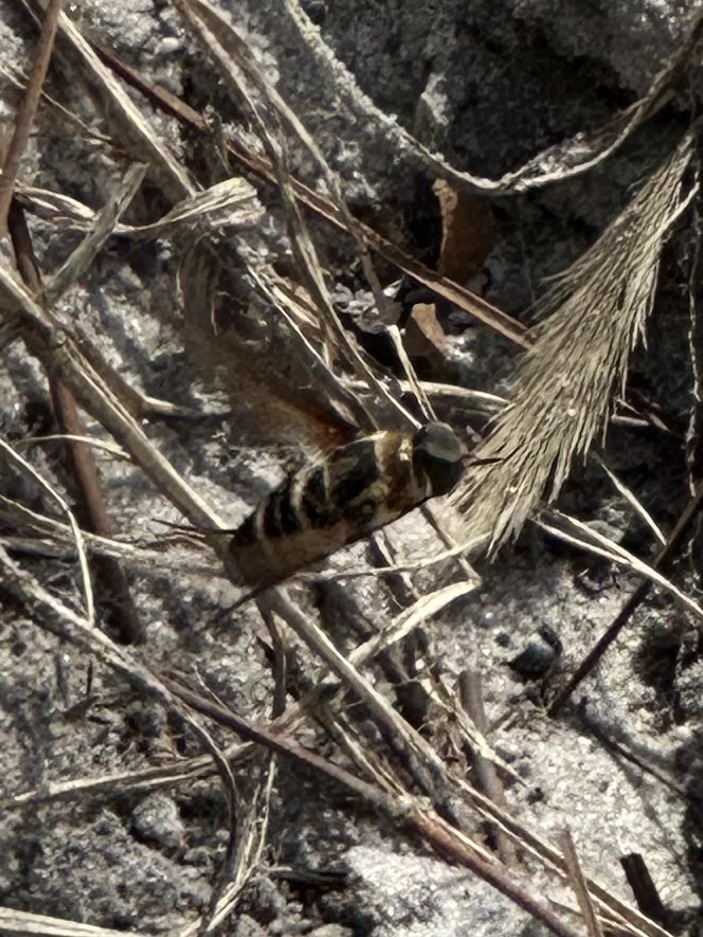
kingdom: Animalia
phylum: Arthropoda
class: Insecta
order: Diptera
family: Bombyliidae
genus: Exoprosopa
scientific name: Exoprosopa fasciata
